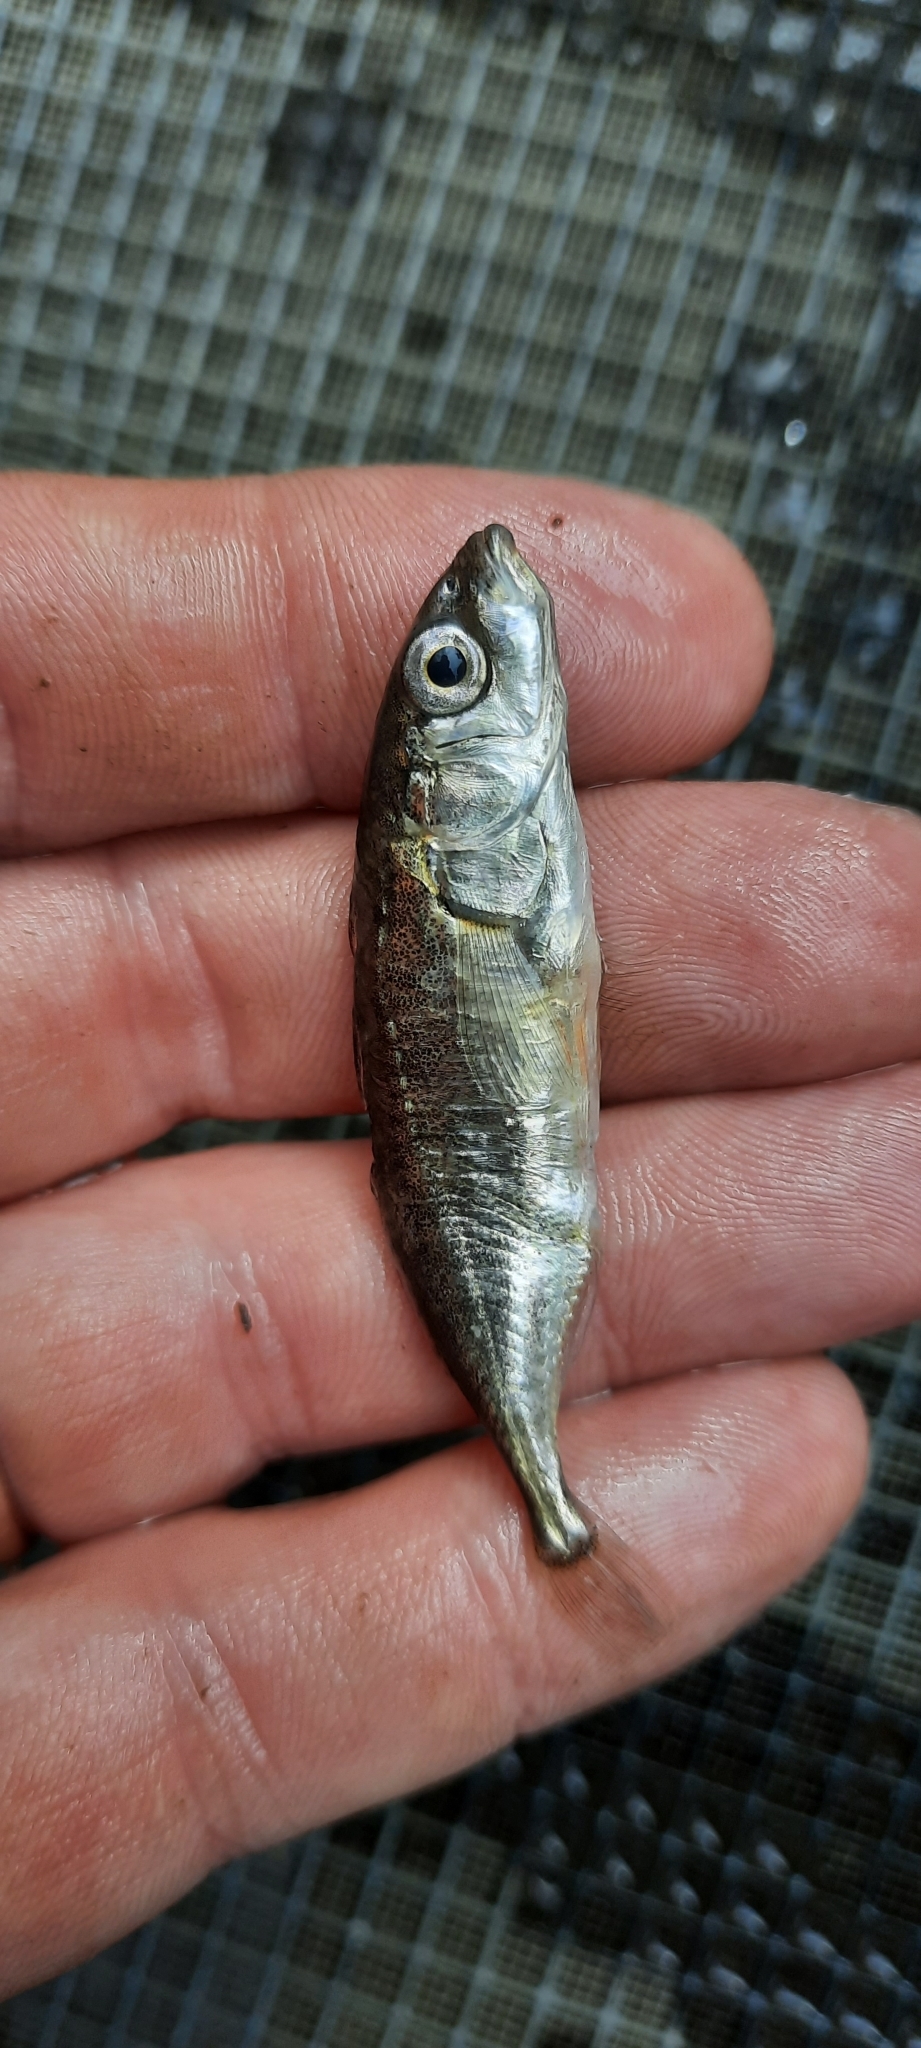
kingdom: Animalia
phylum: Chordata
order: Gasterosteiformes
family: Gasterosteidae
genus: Gasterosteus
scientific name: Gasterosteus aculeatus
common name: Three-spined stickleback
